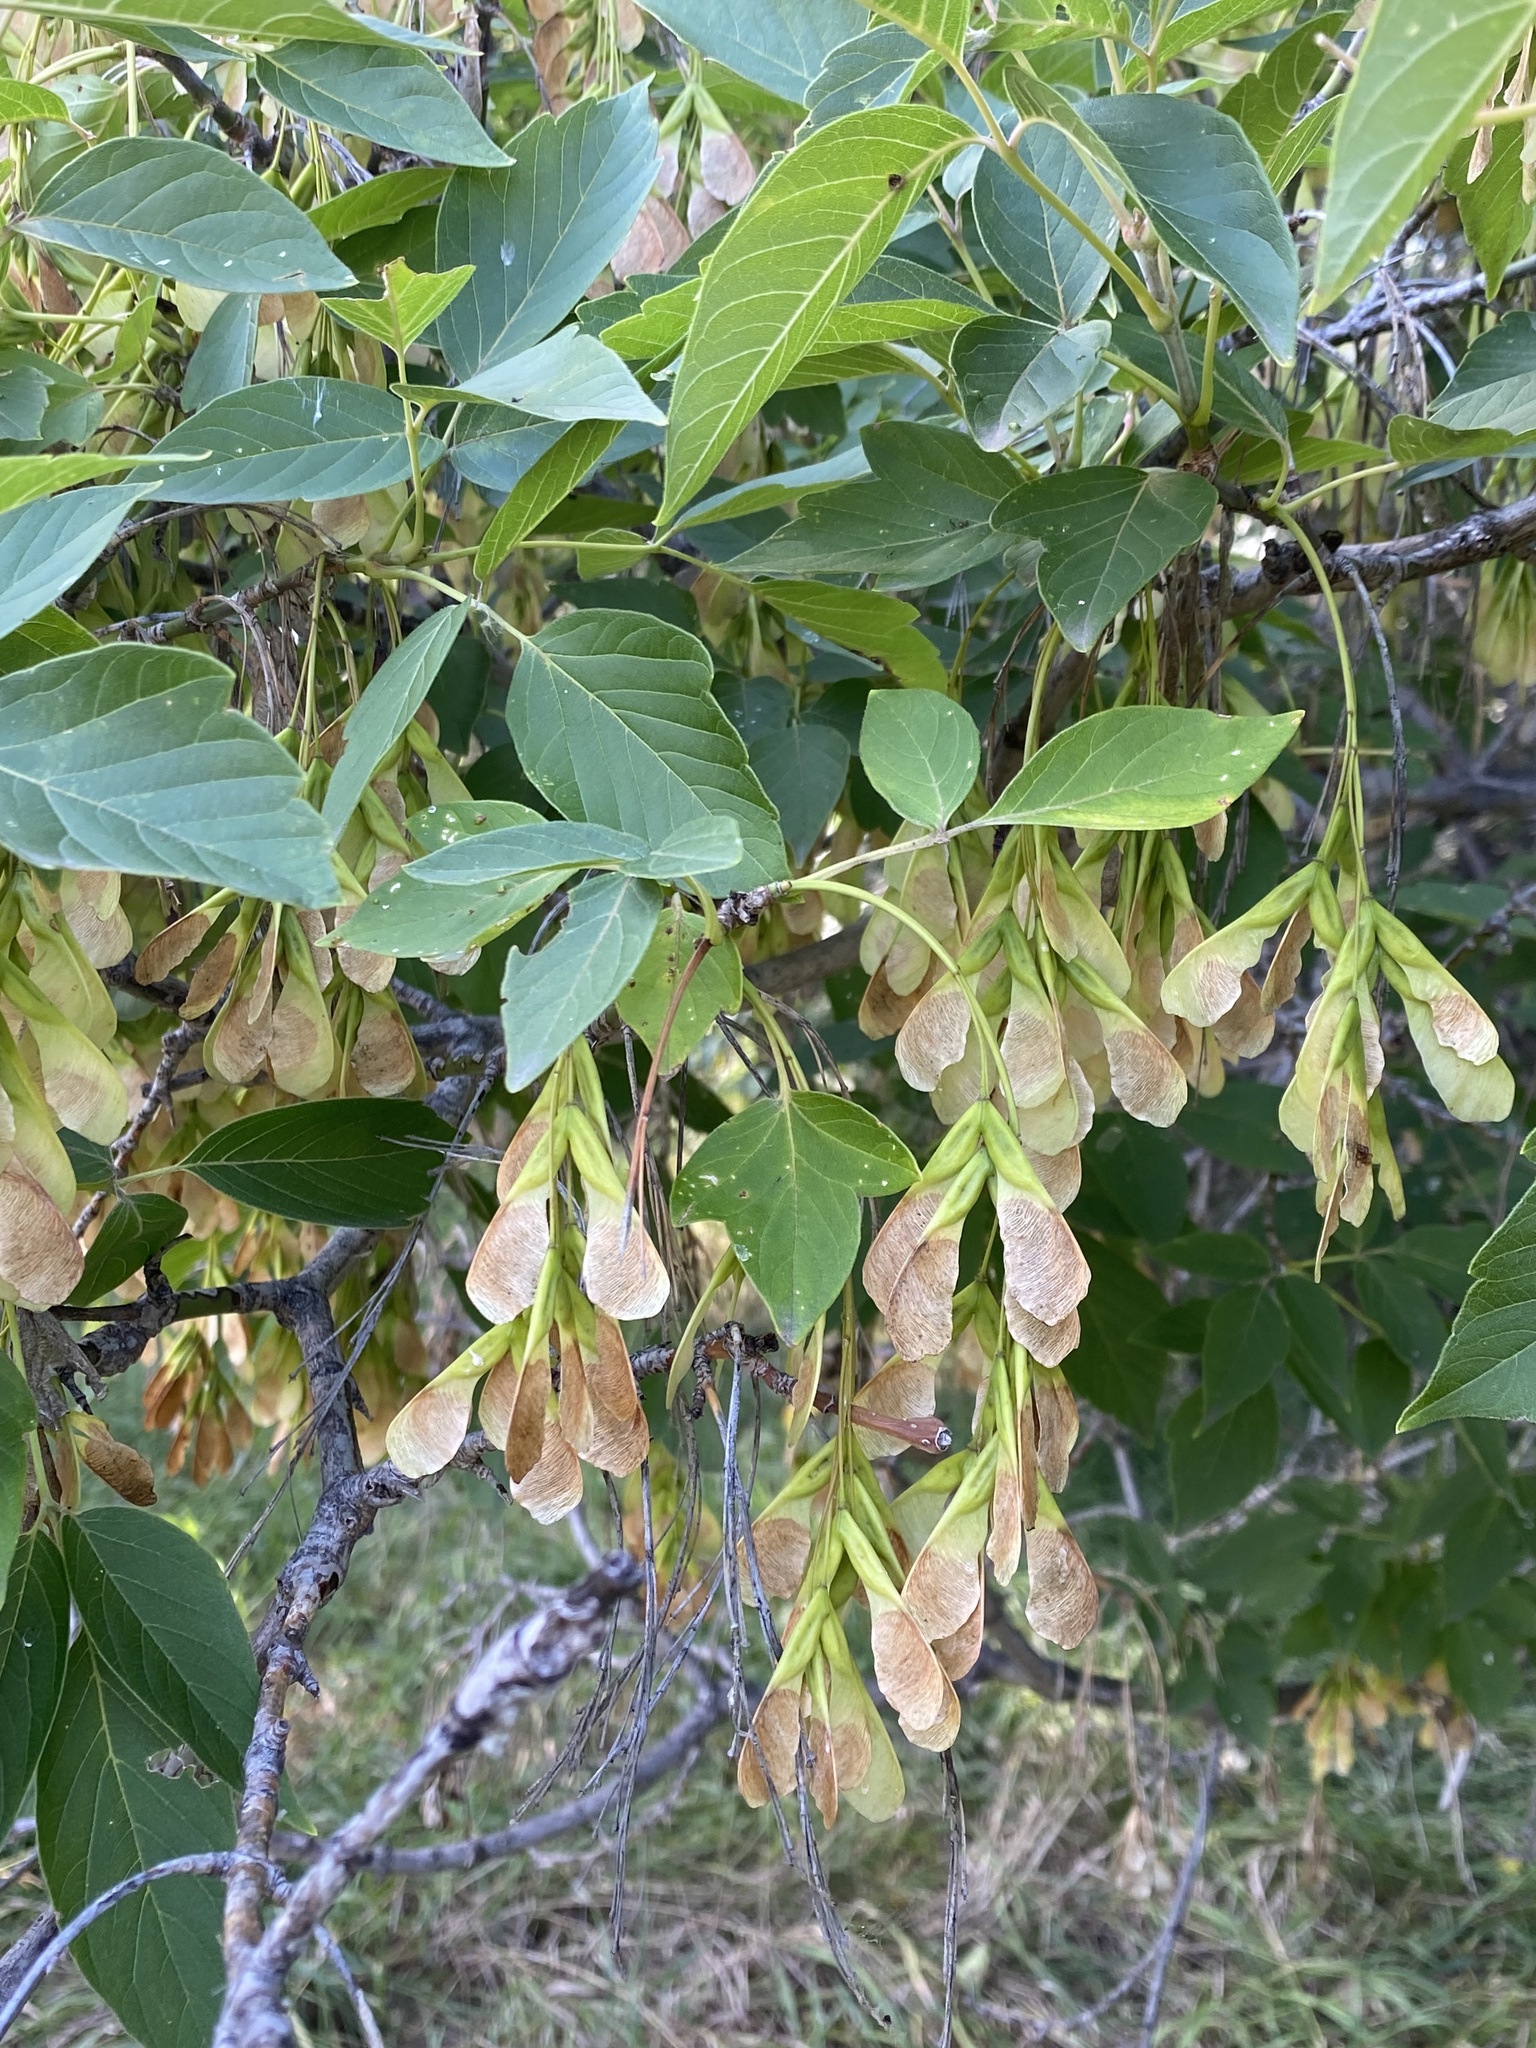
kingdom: Plantae
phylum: Tracheophyta
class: Magnoliopsida
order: Sapindales
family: Sapindaceae
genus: Acer
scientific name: Acer negundo
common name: Ashleaf maple
